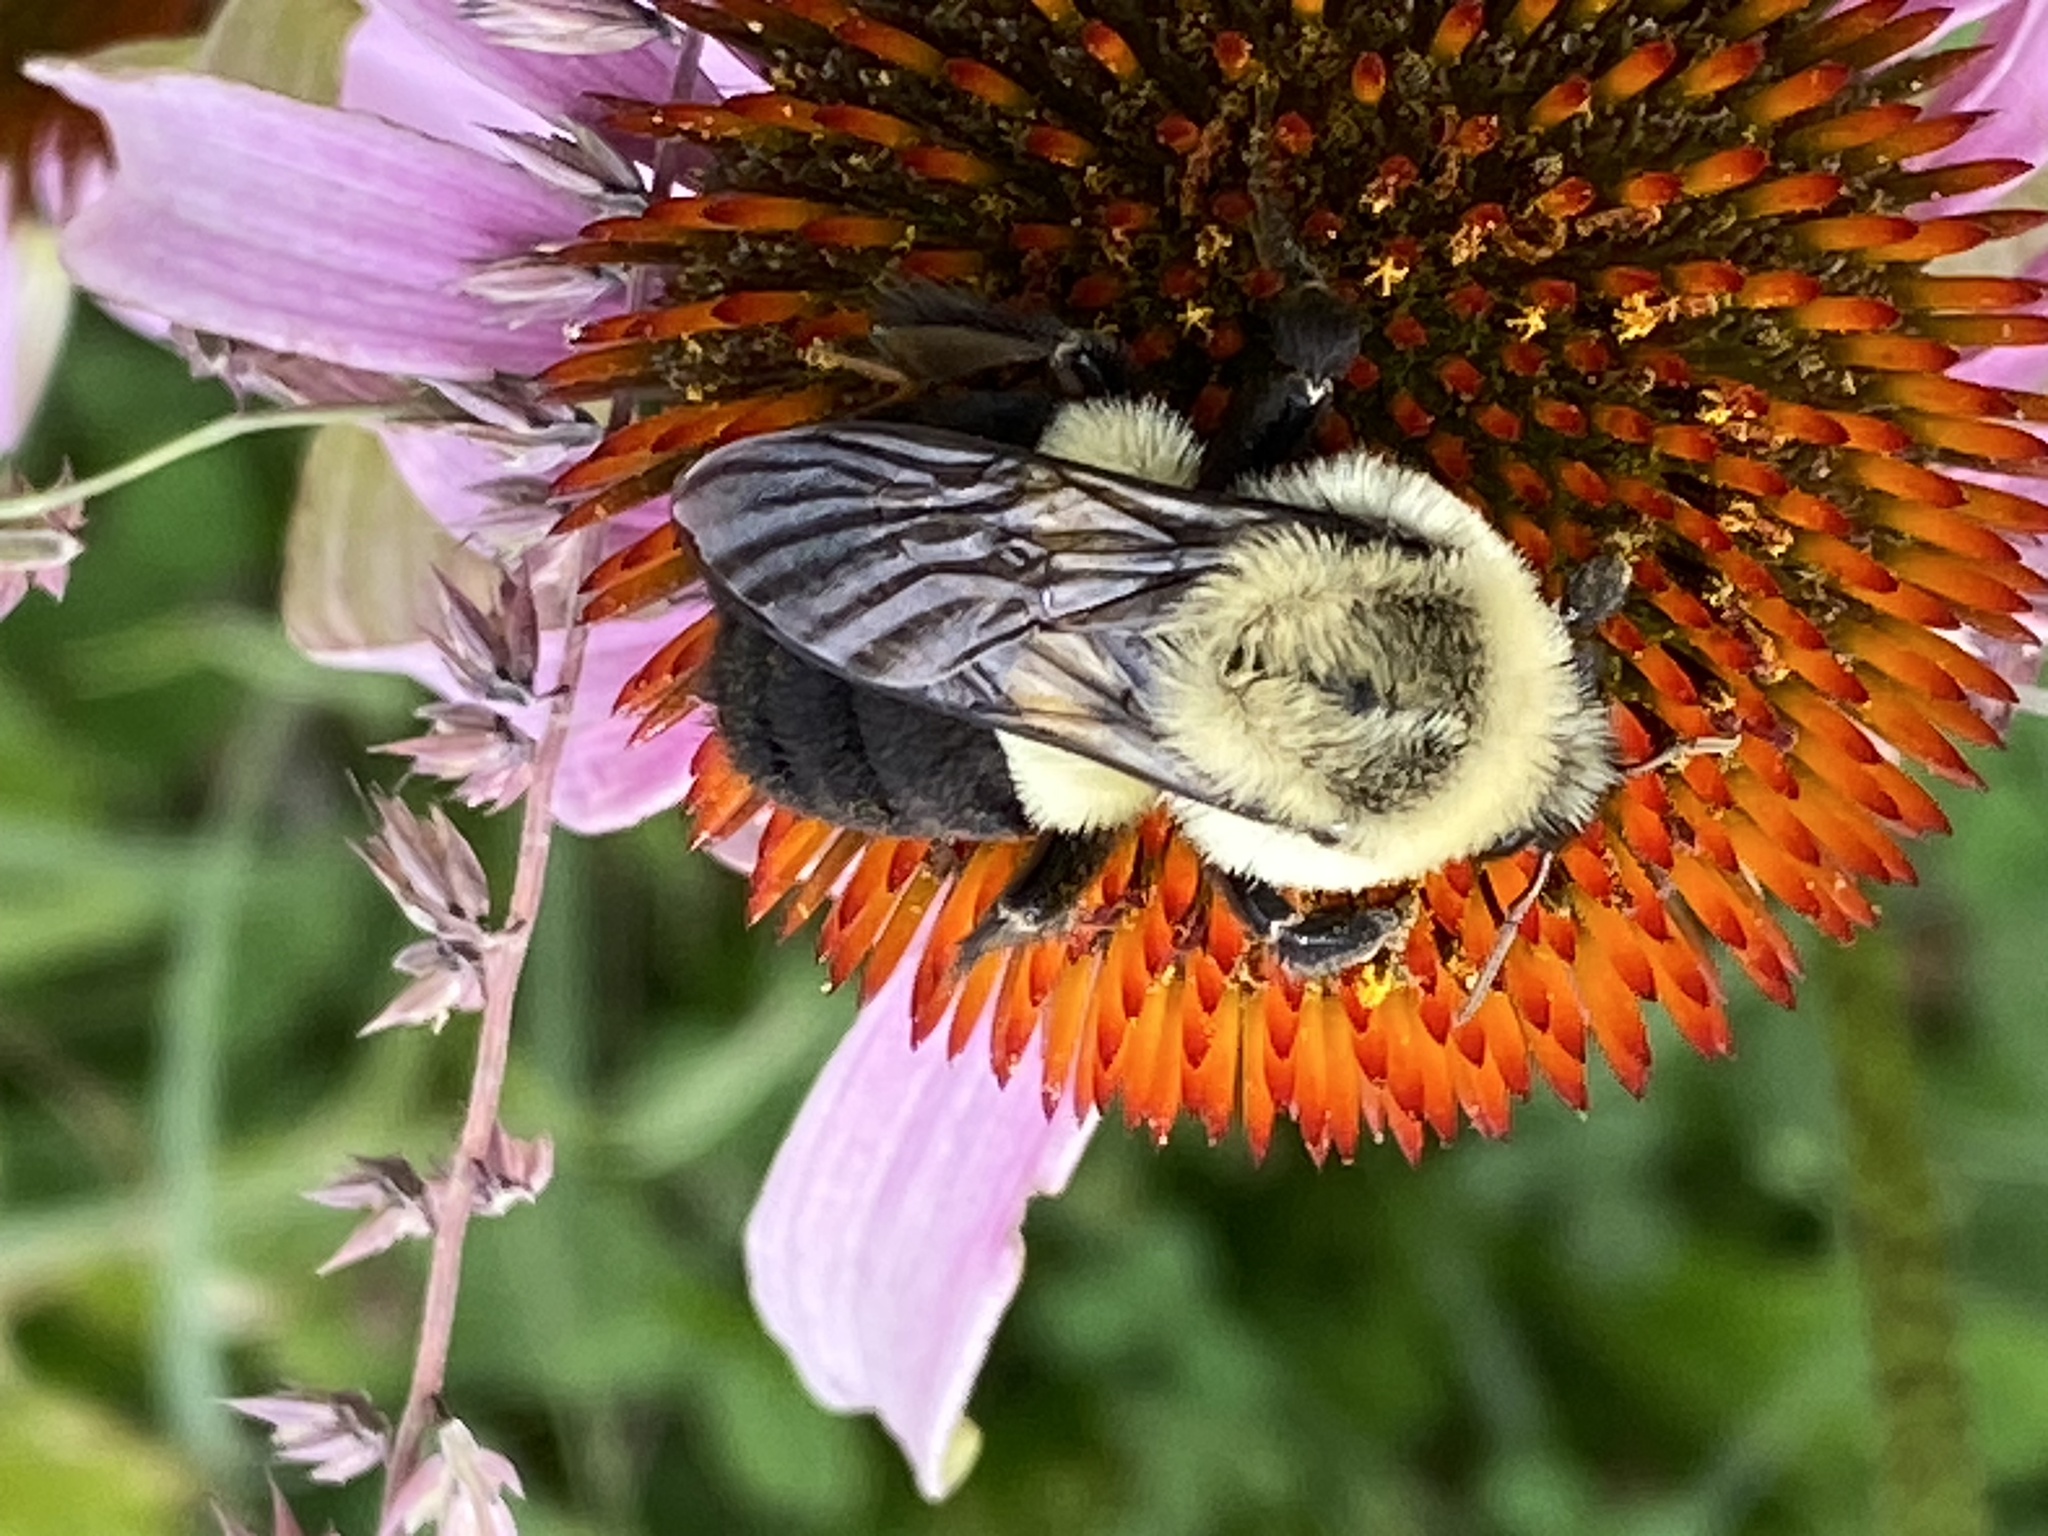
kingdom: Animalia
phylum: Arthropoda
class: Insecta
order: Hymenoptera
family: Apidae
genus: Bombus
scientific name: Bombus impatiens
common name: Common eastern bumble bee
